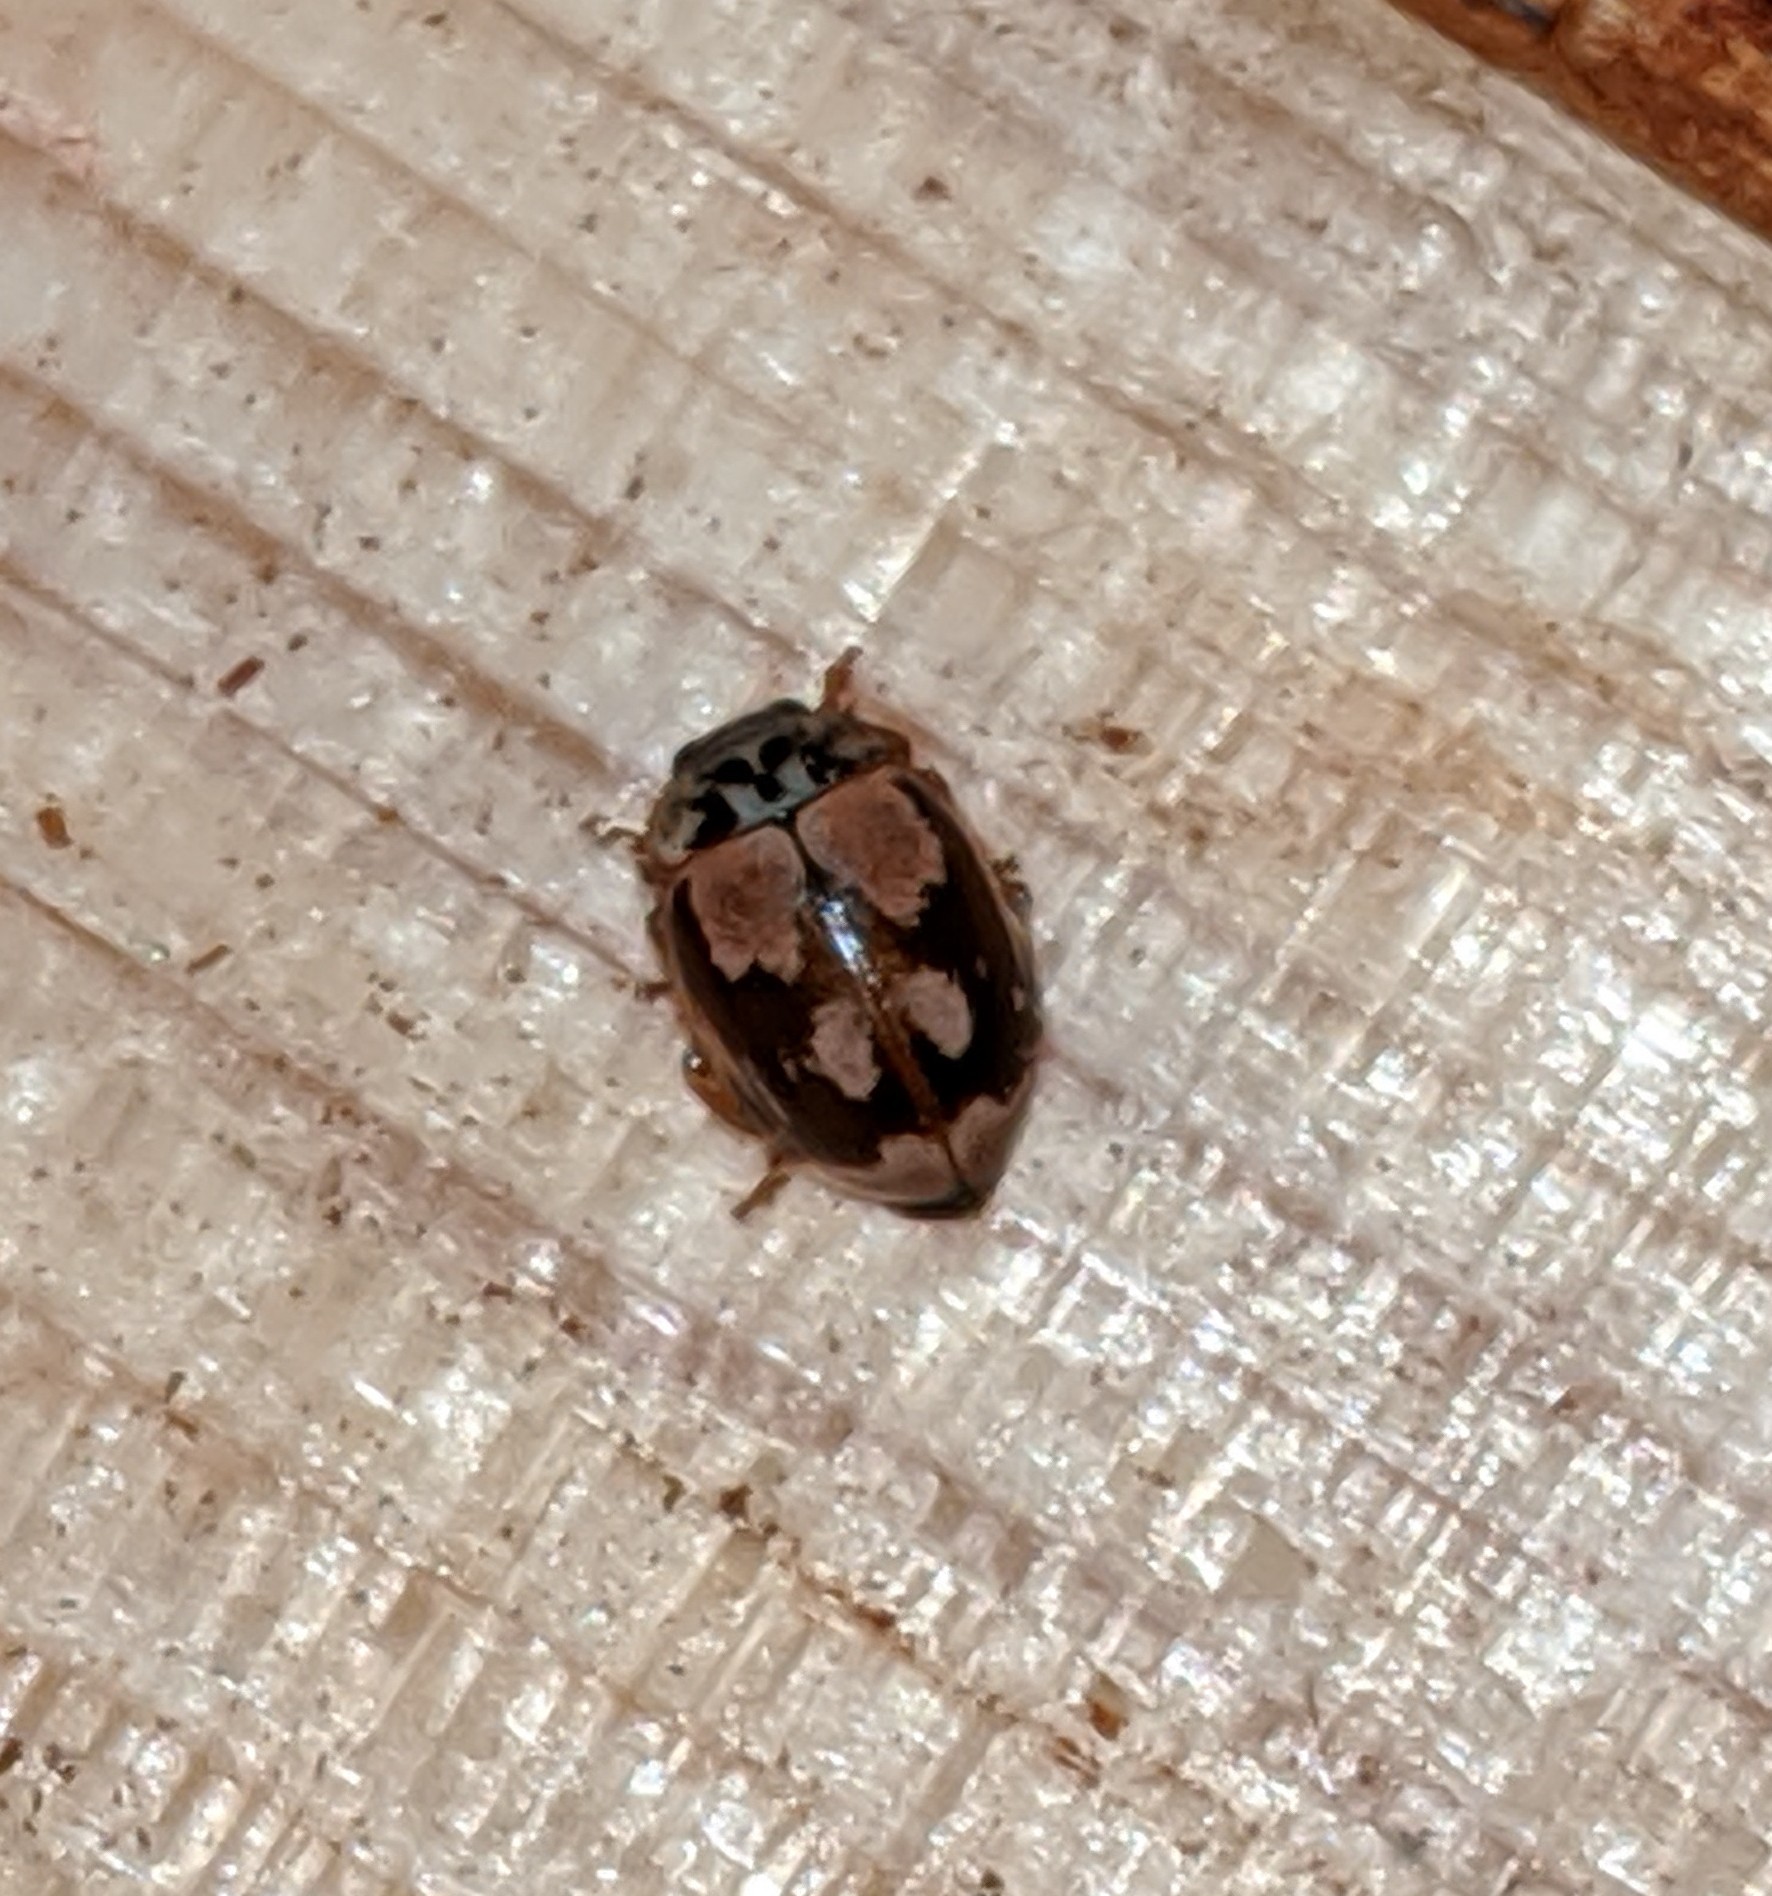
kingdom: Animalia
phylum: Arthropoda
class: Insecta
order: Coleoptera
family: Coccinellidae
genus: Mulsantina
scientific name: Mulsantina picta
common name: Painted ladybird
